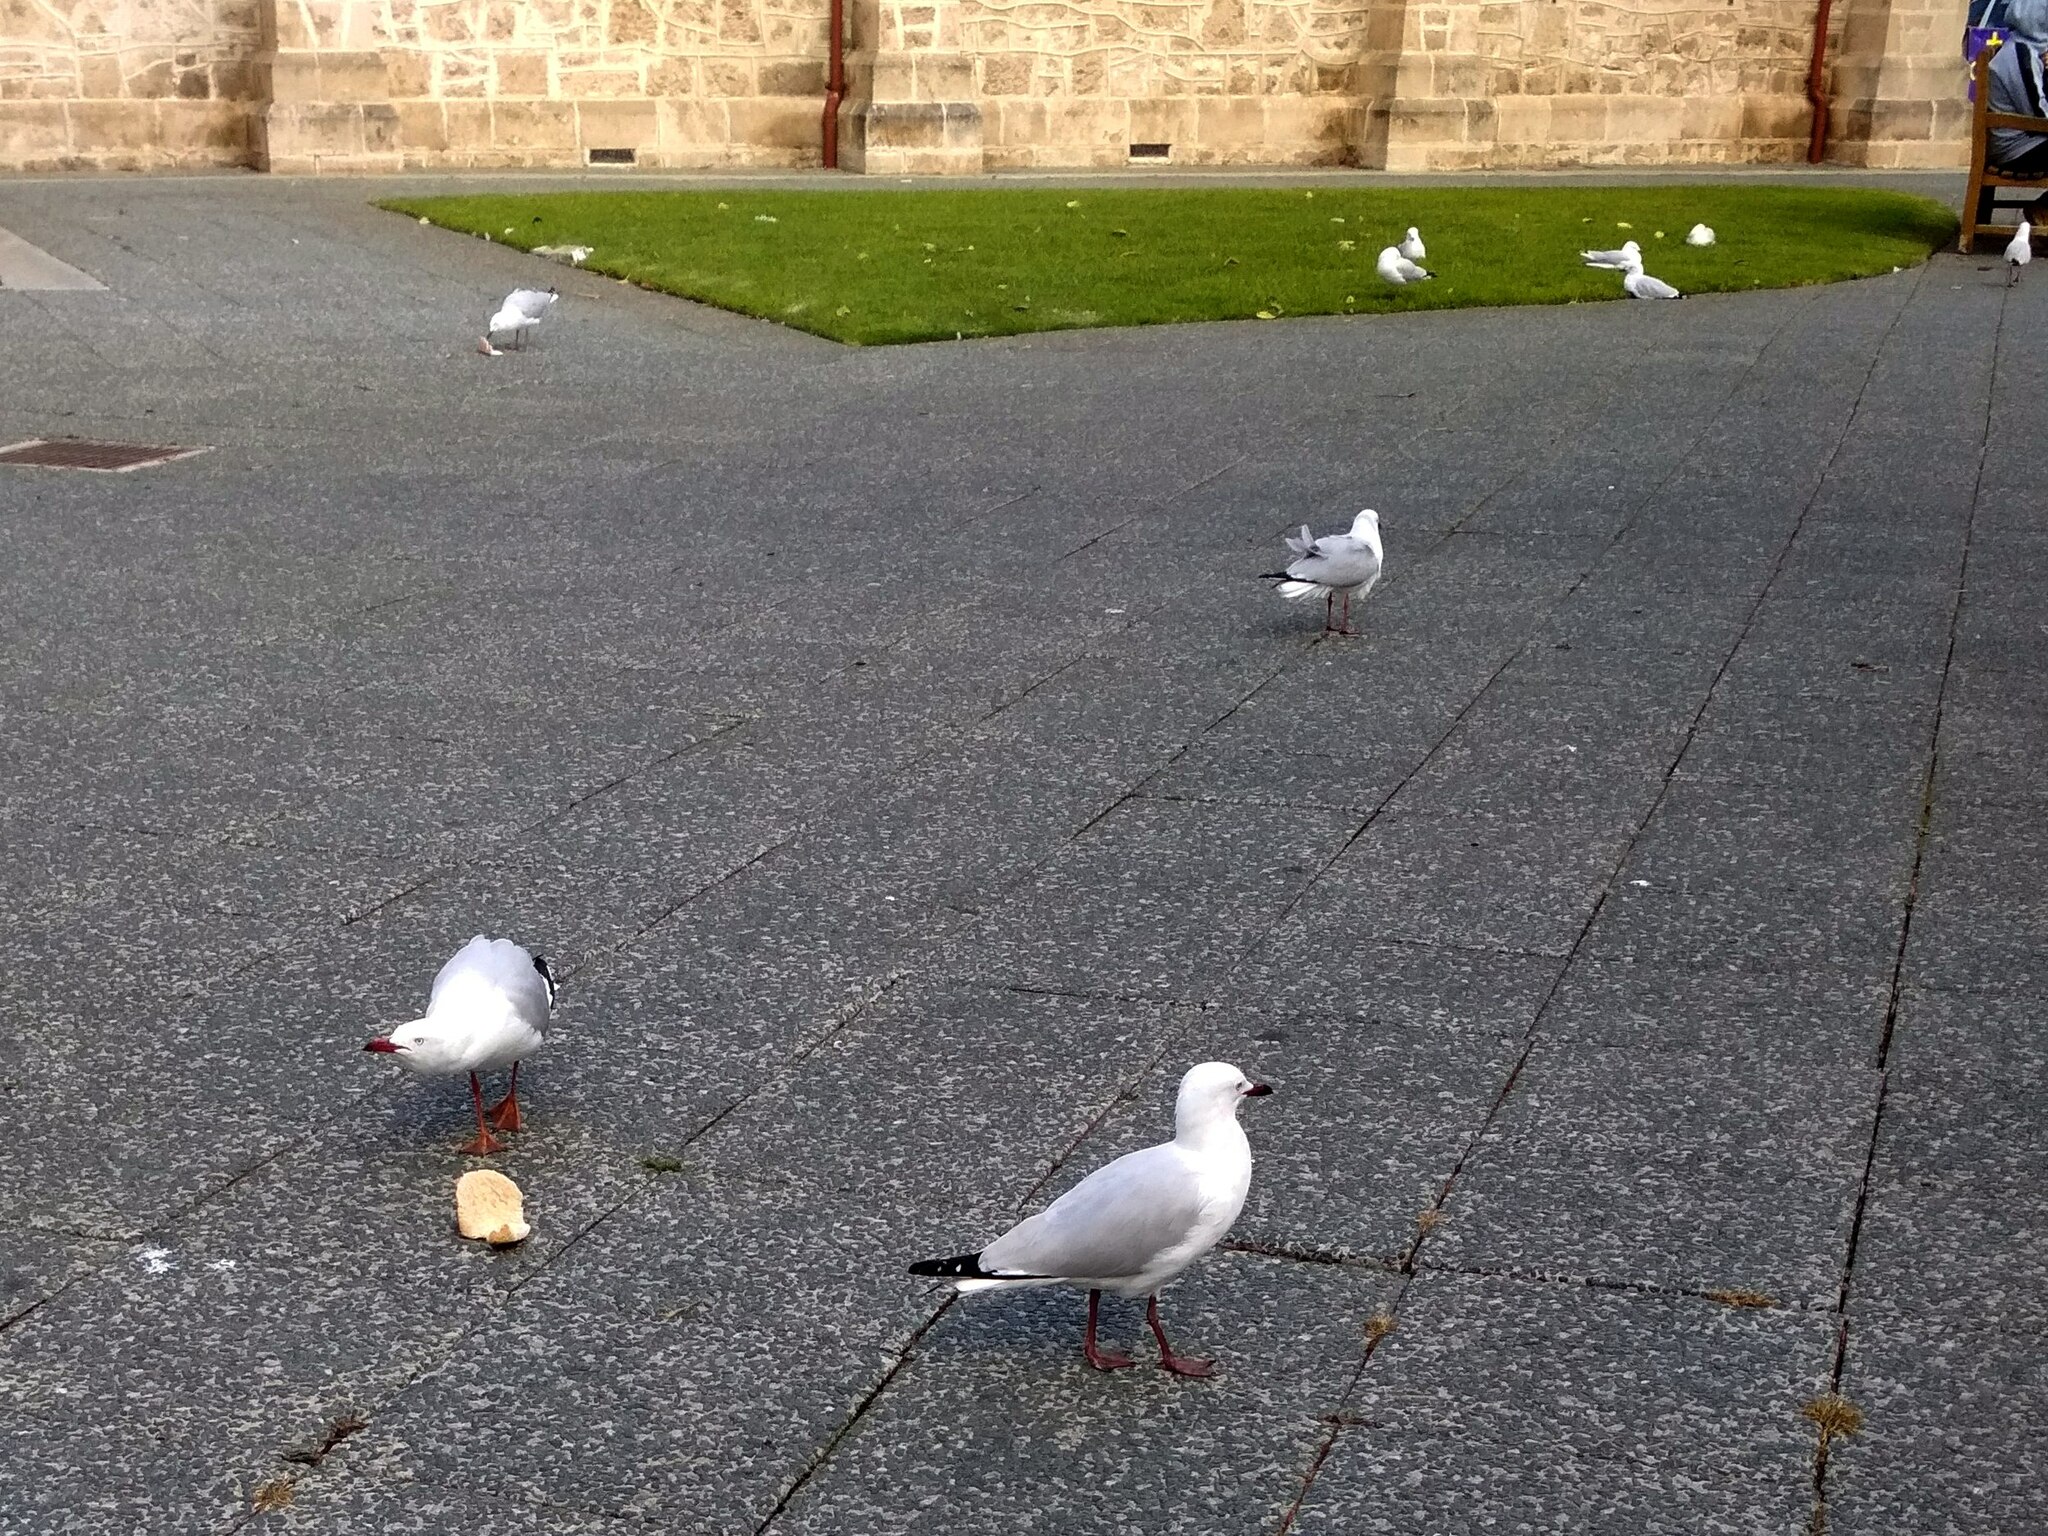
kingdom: Animalia
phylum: Chordata
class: Aves
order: Charadriiformes
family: Laridae
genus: Chroicocephalus
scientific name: Chroicocephalus novaehollandiae
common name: Silver gull
